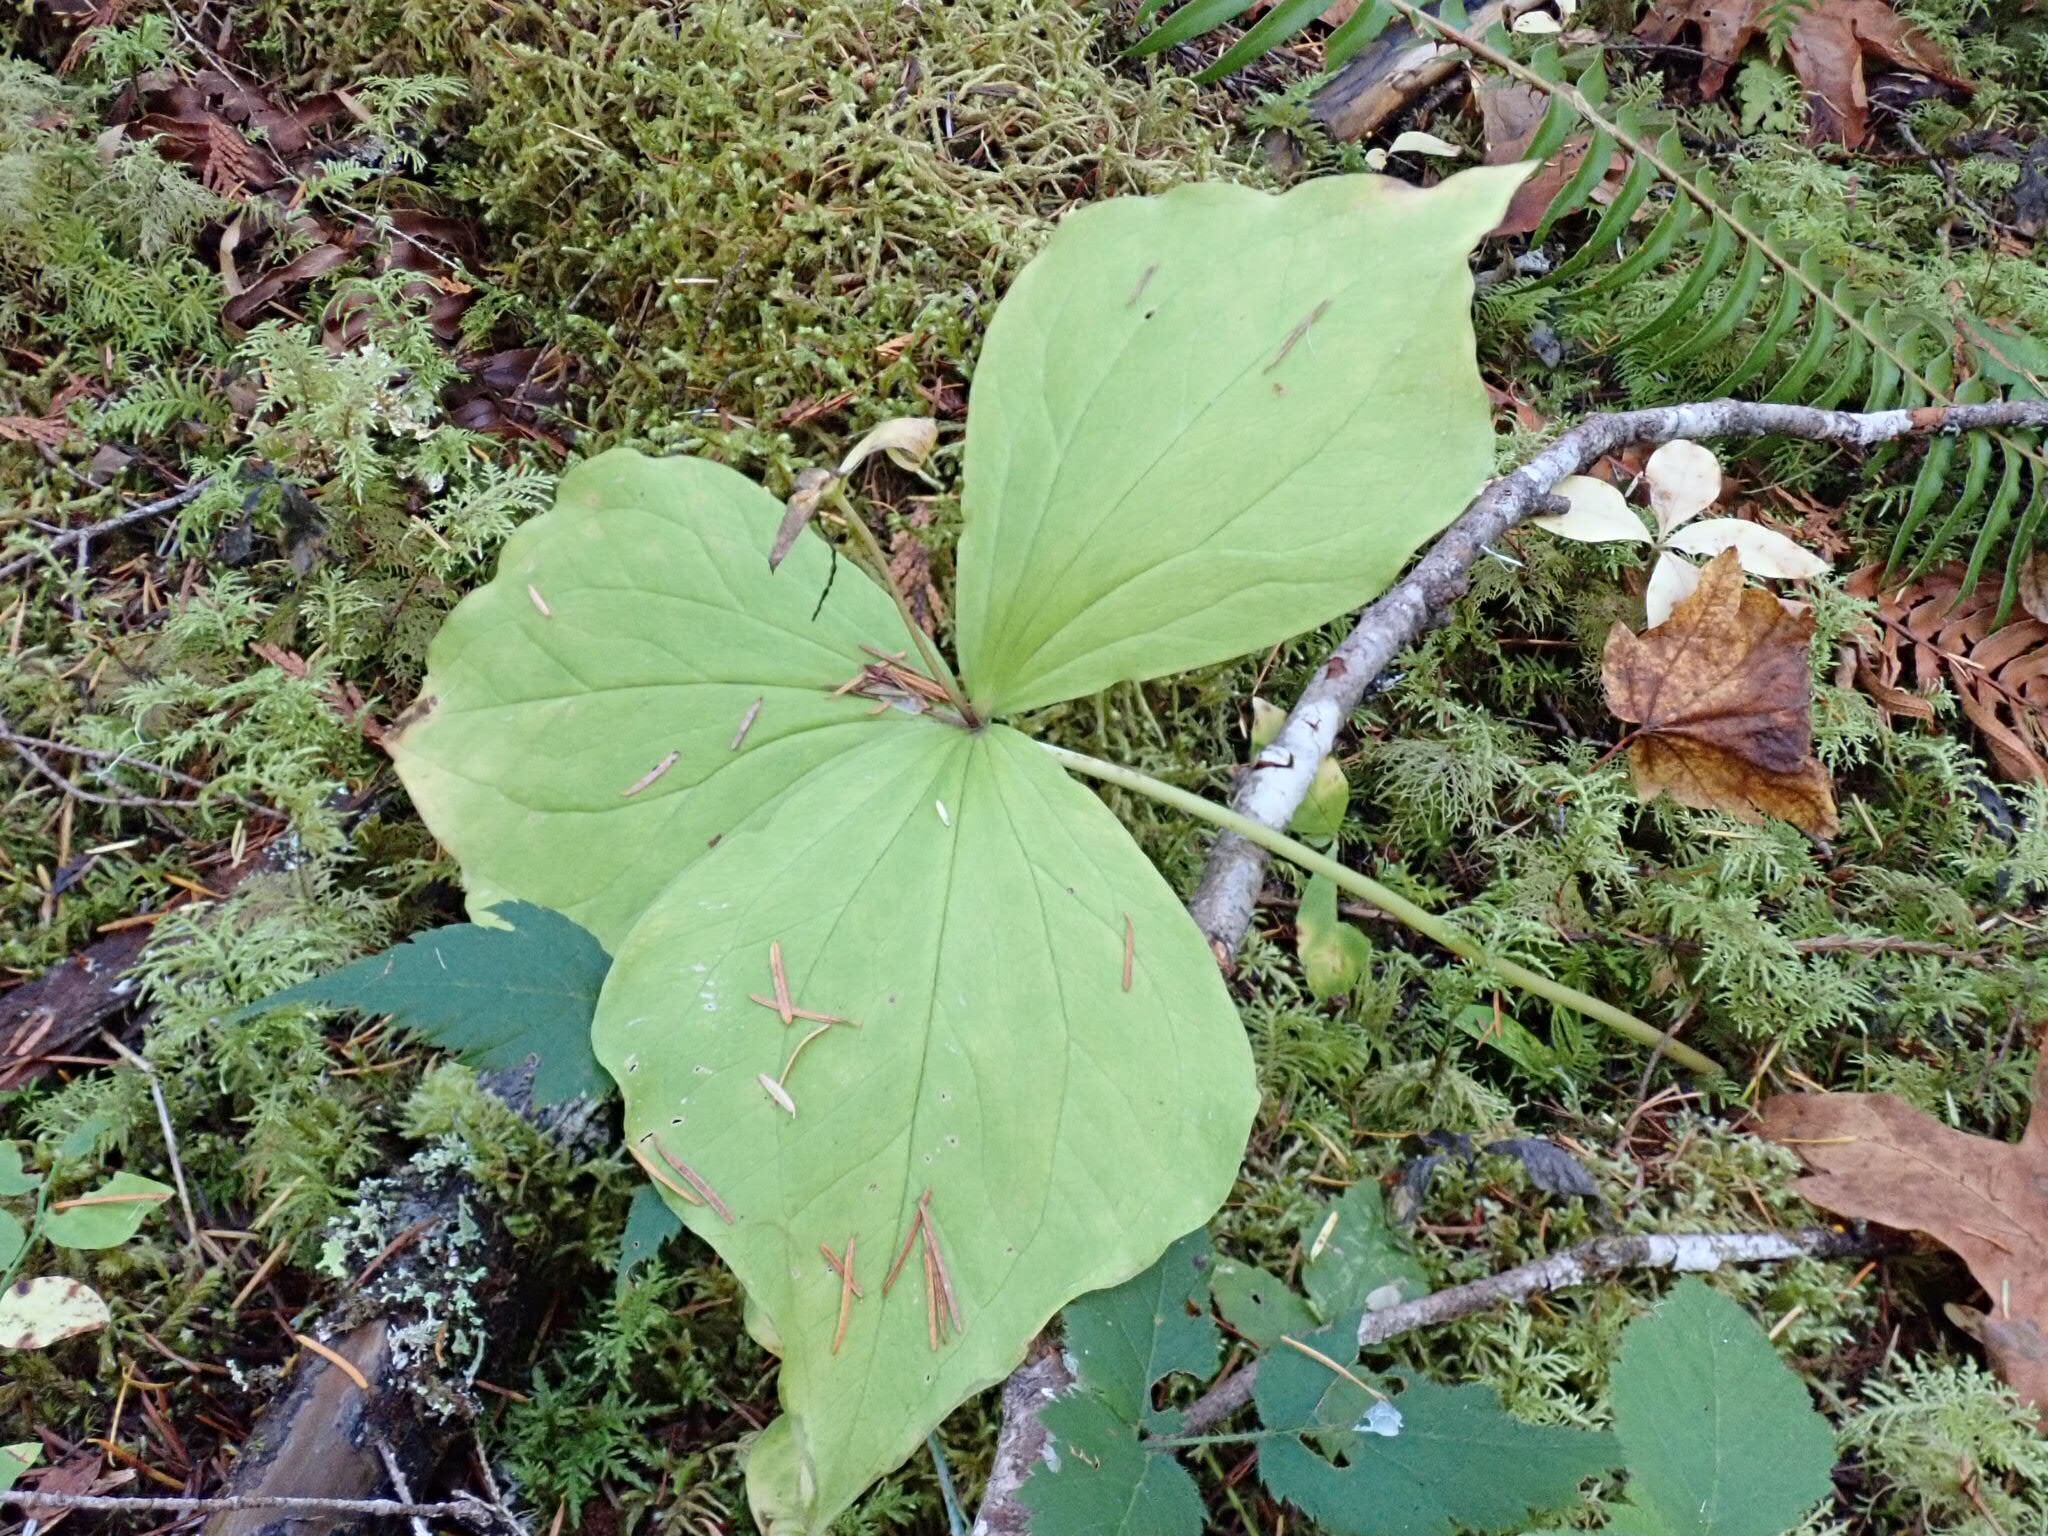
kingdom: Plantae
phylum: Tracheophyta
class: Liliopsida
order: Liliales
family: Melanthiaceae
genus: Trillium
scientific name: Trillium ovatum
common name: Pacific trillium
